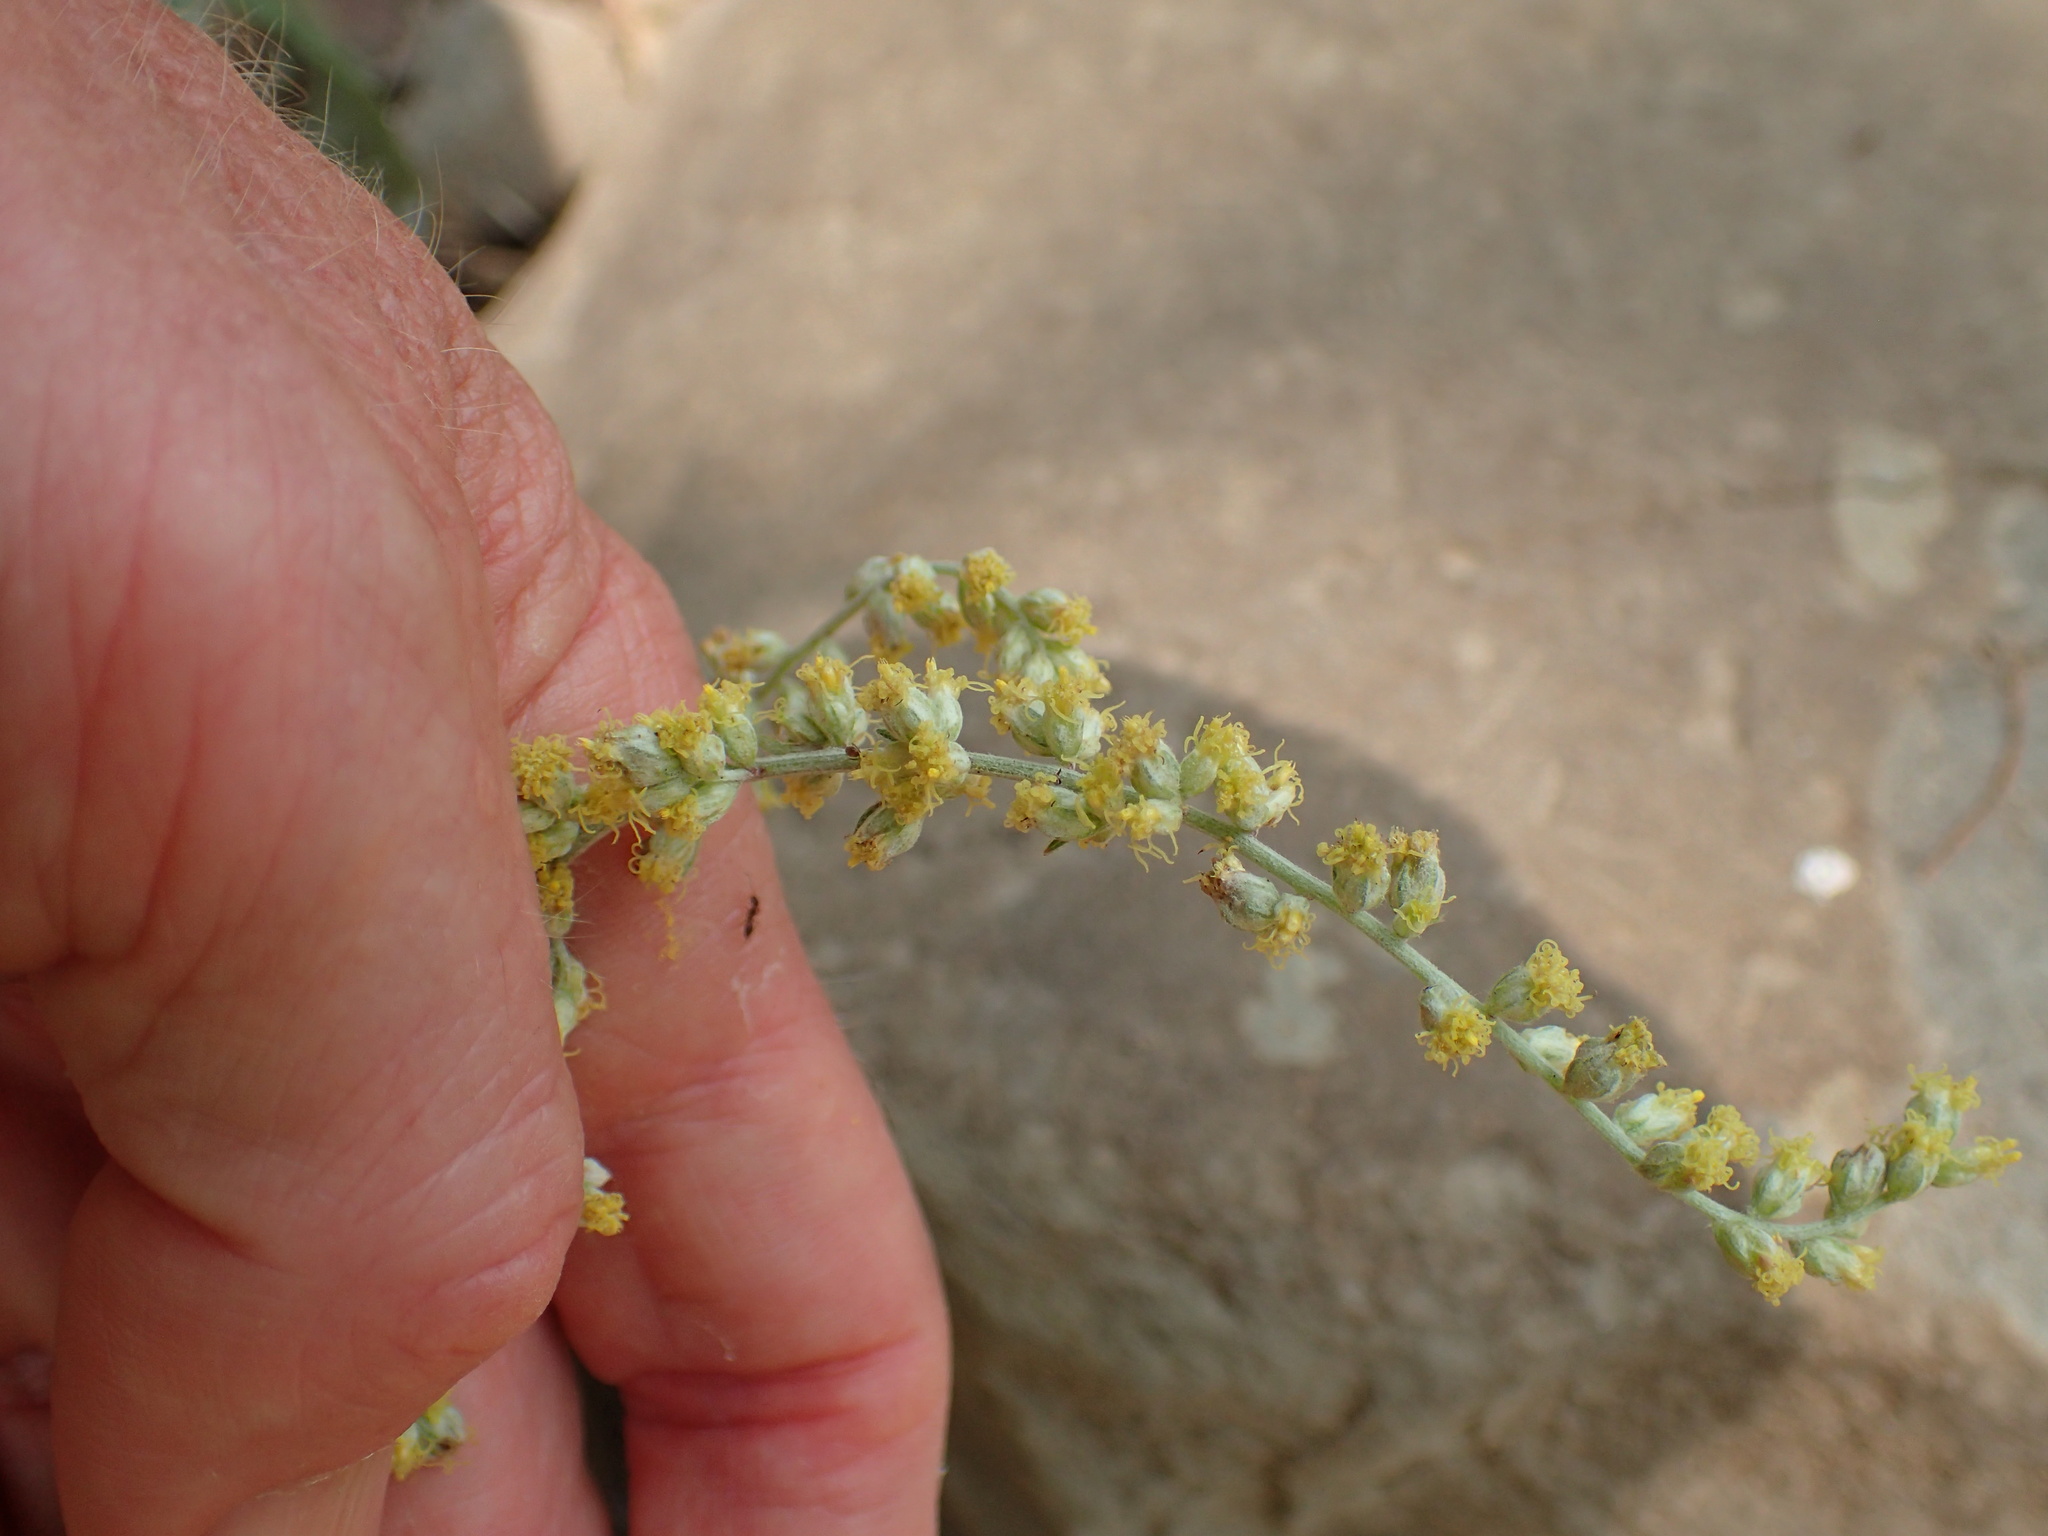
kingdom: Plantae
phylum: Tracheophyta
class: Magnoliopsida
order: Asterales
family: Asteraceae
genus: Artemisia
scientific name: Artemisia douglasiana
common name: Northwest mugwort
